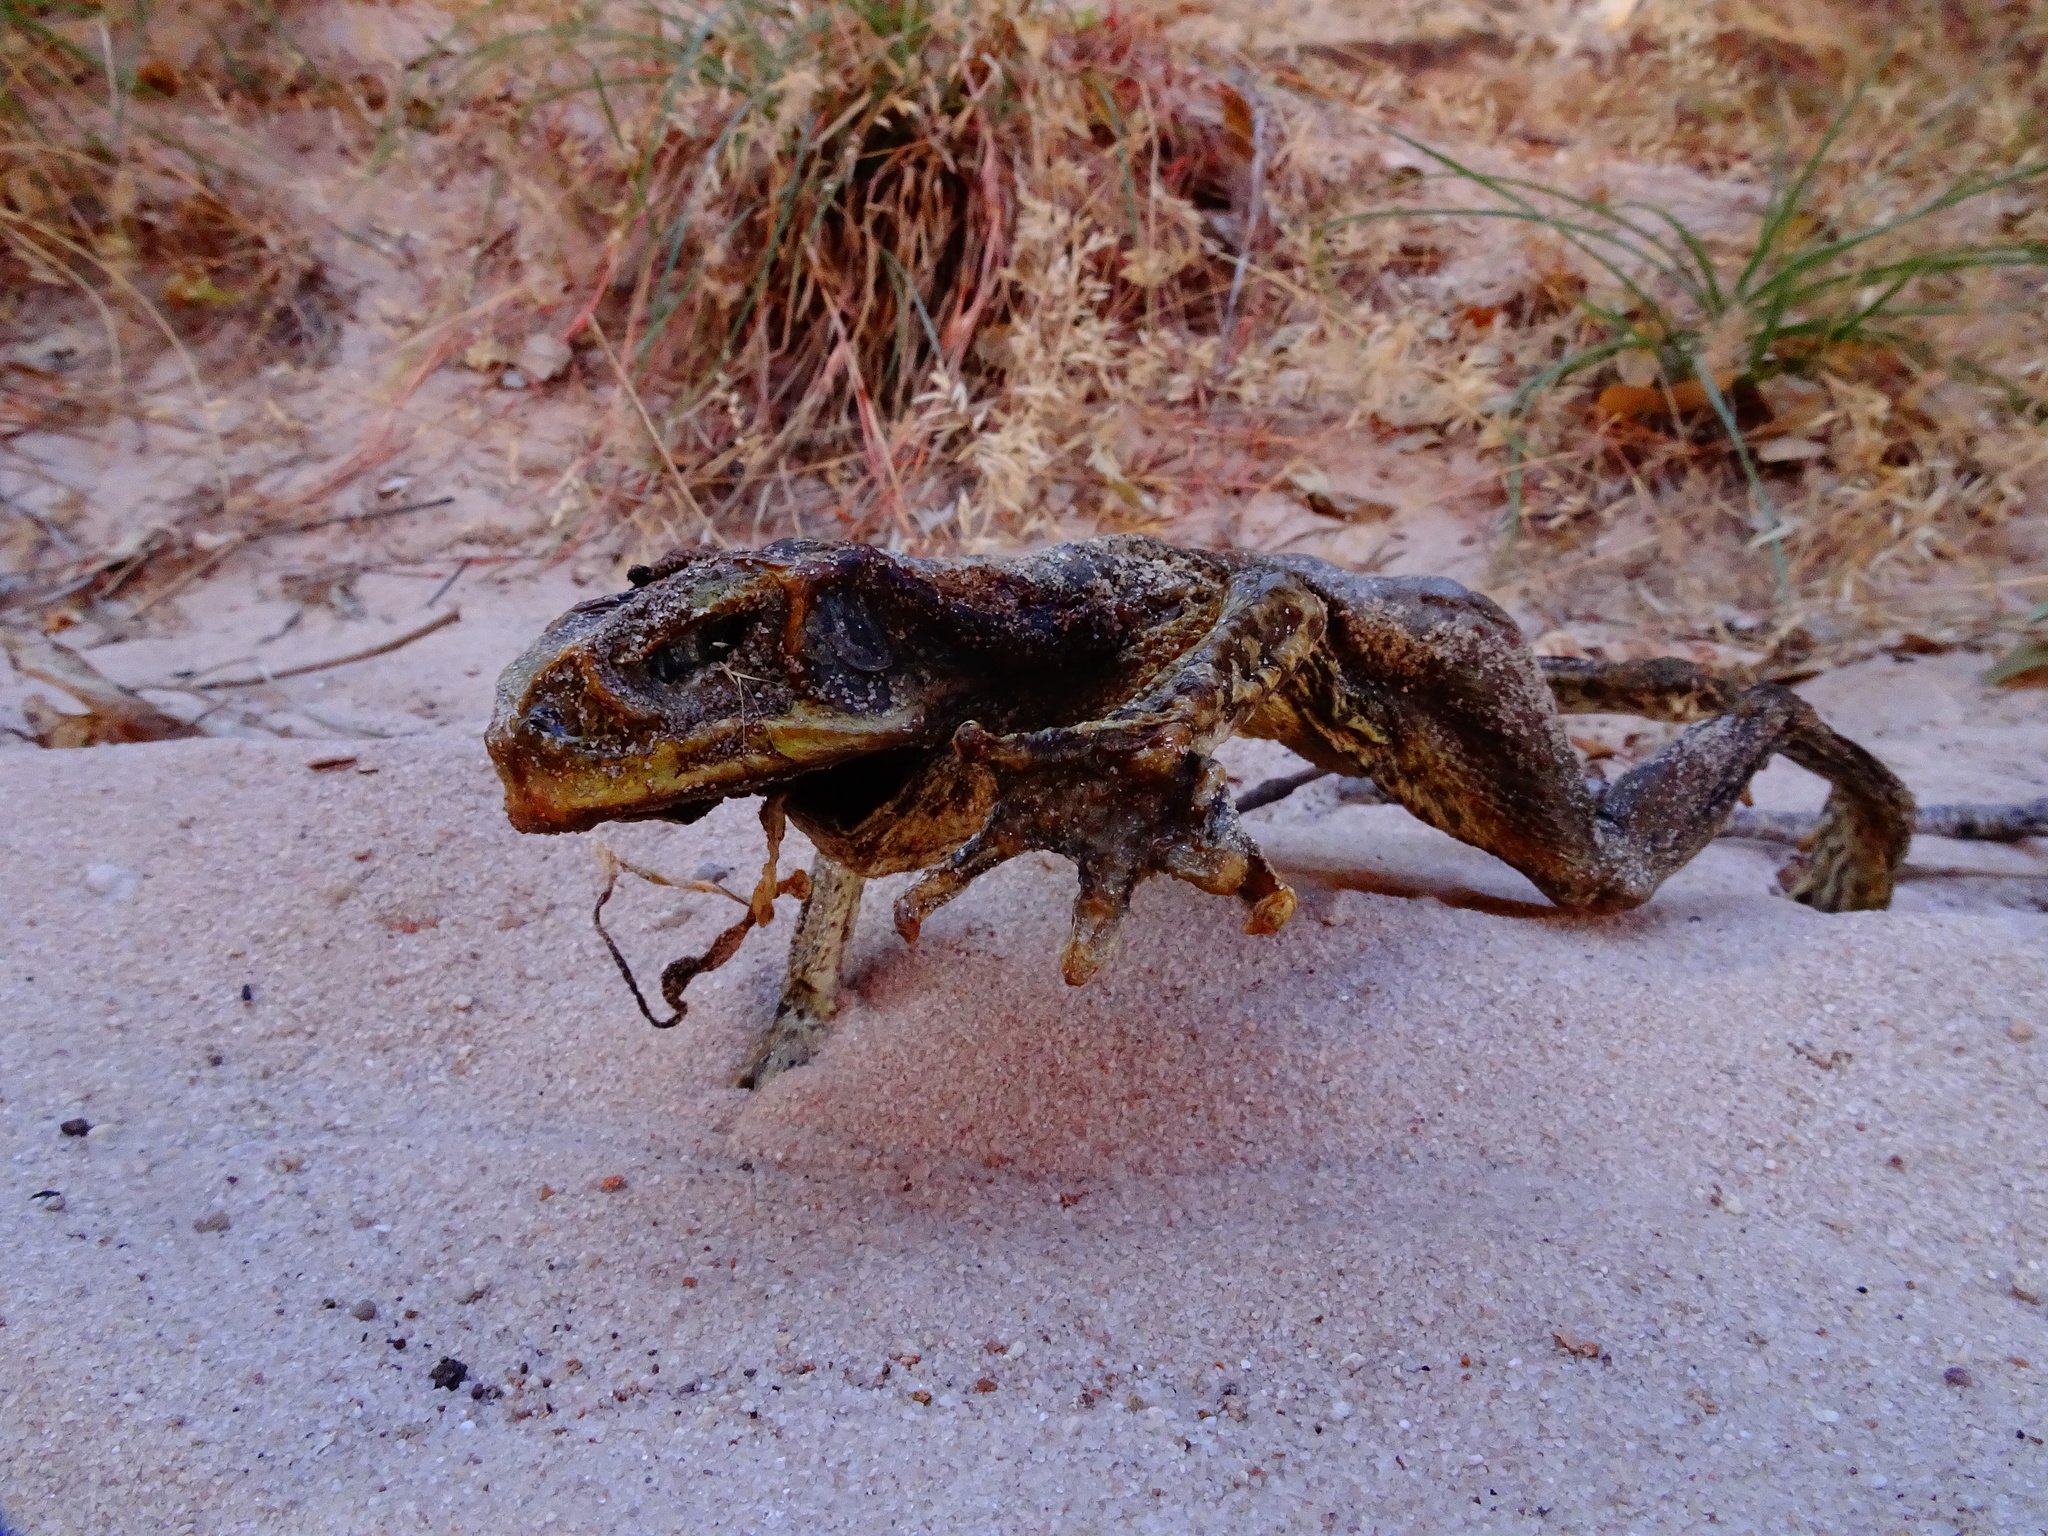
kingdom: Animalia
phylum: Chordata
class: Amphibia
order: Anura
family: Bufonidae
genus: Rhinella
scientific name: Rhinella marina
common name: Cane toad
